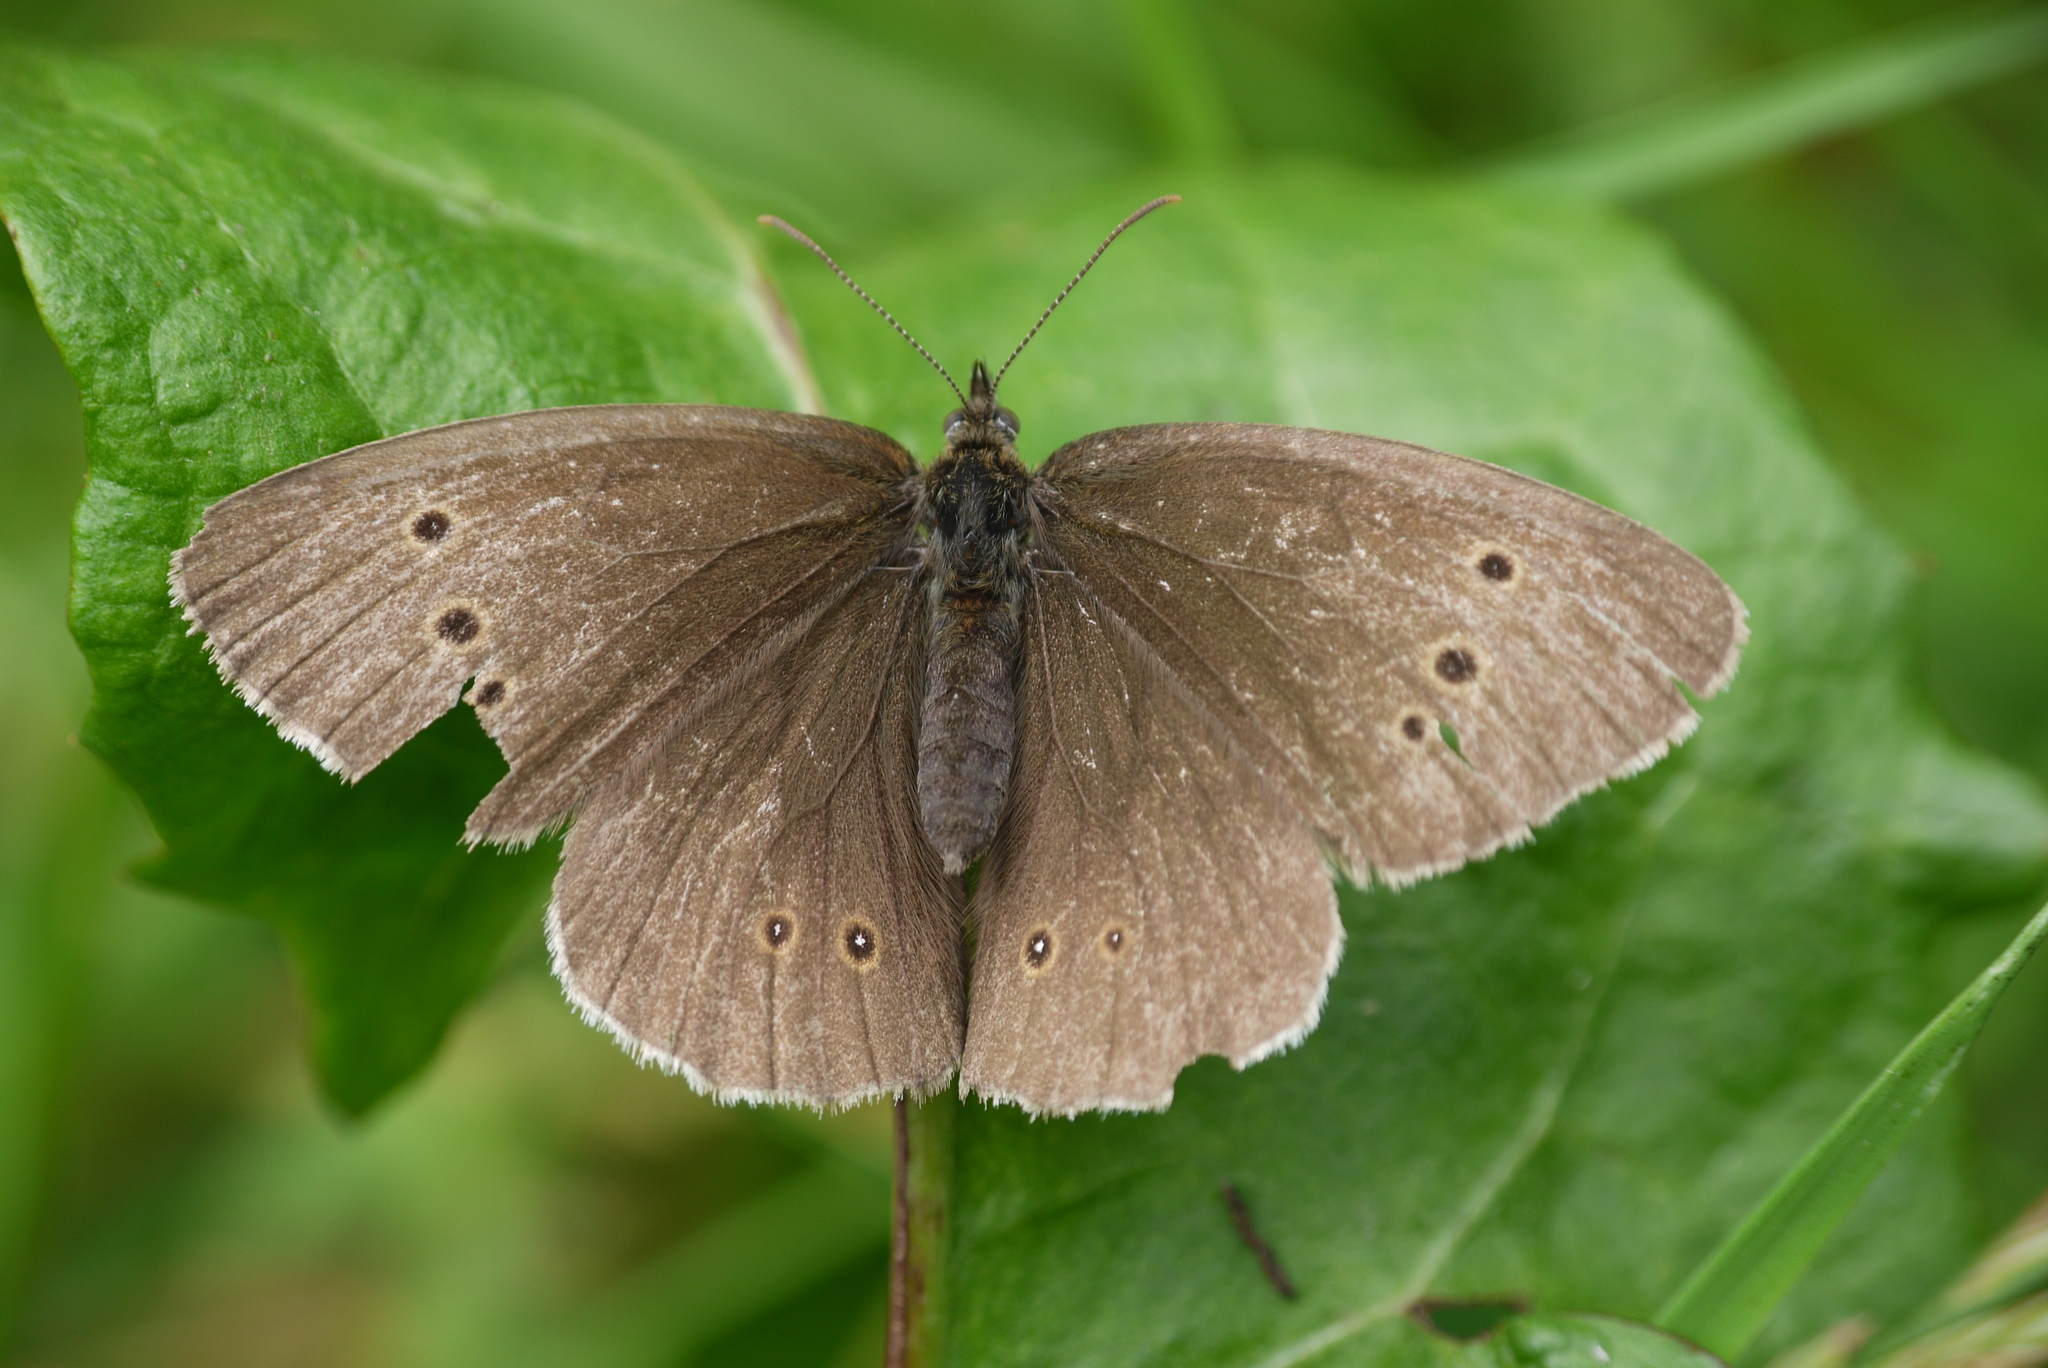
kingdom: Animalia
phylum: Arthropoda
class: Insecta
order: Lepidoptera
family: Nymphalidae
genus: Aphantopus
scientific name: Aphantopus hyperantus
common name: Ringlet
